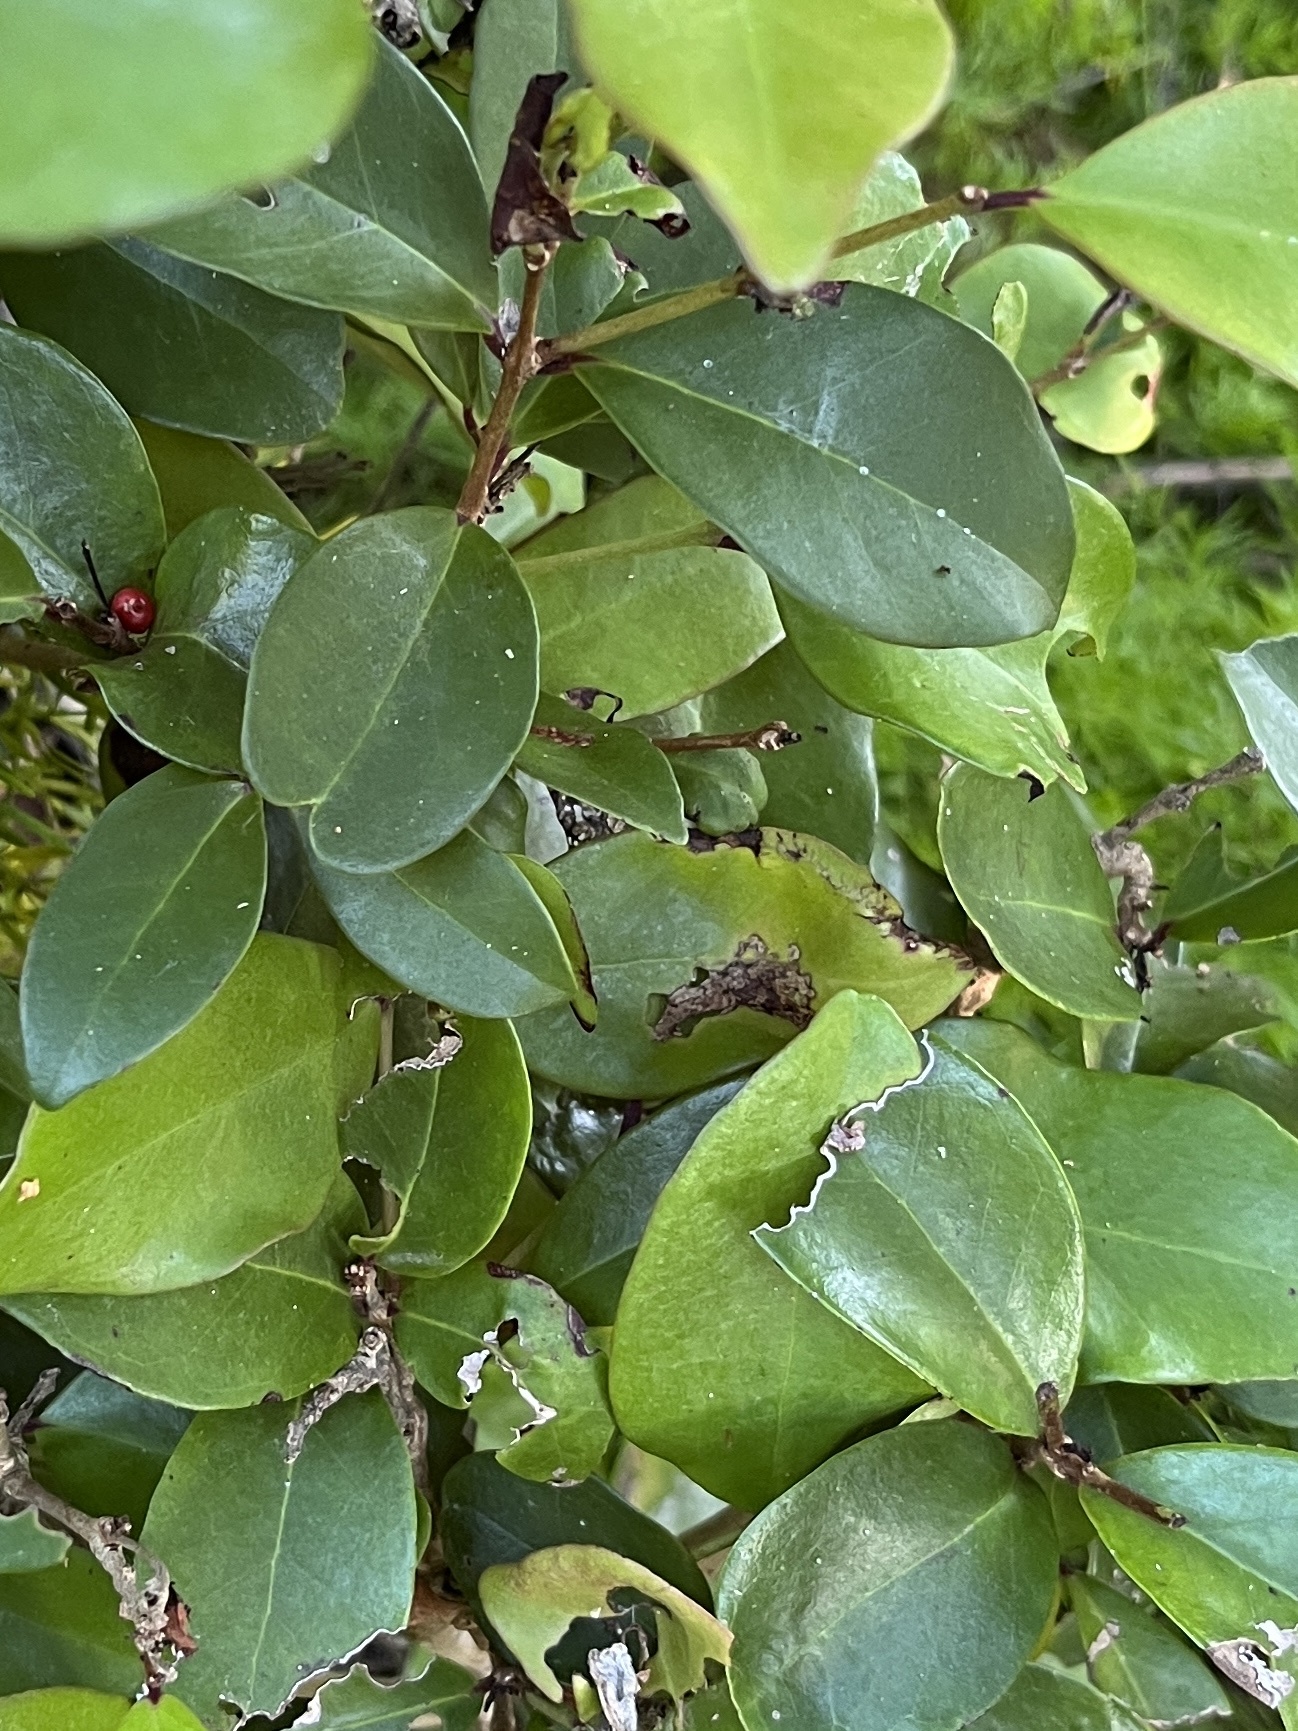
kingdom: Plantae
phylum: Tracheophyta
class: Magnoliopsida
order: Myrtales
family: Myrtaceae
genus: Eugenia
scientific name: Eugenia axillaris
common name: Choaky berry
